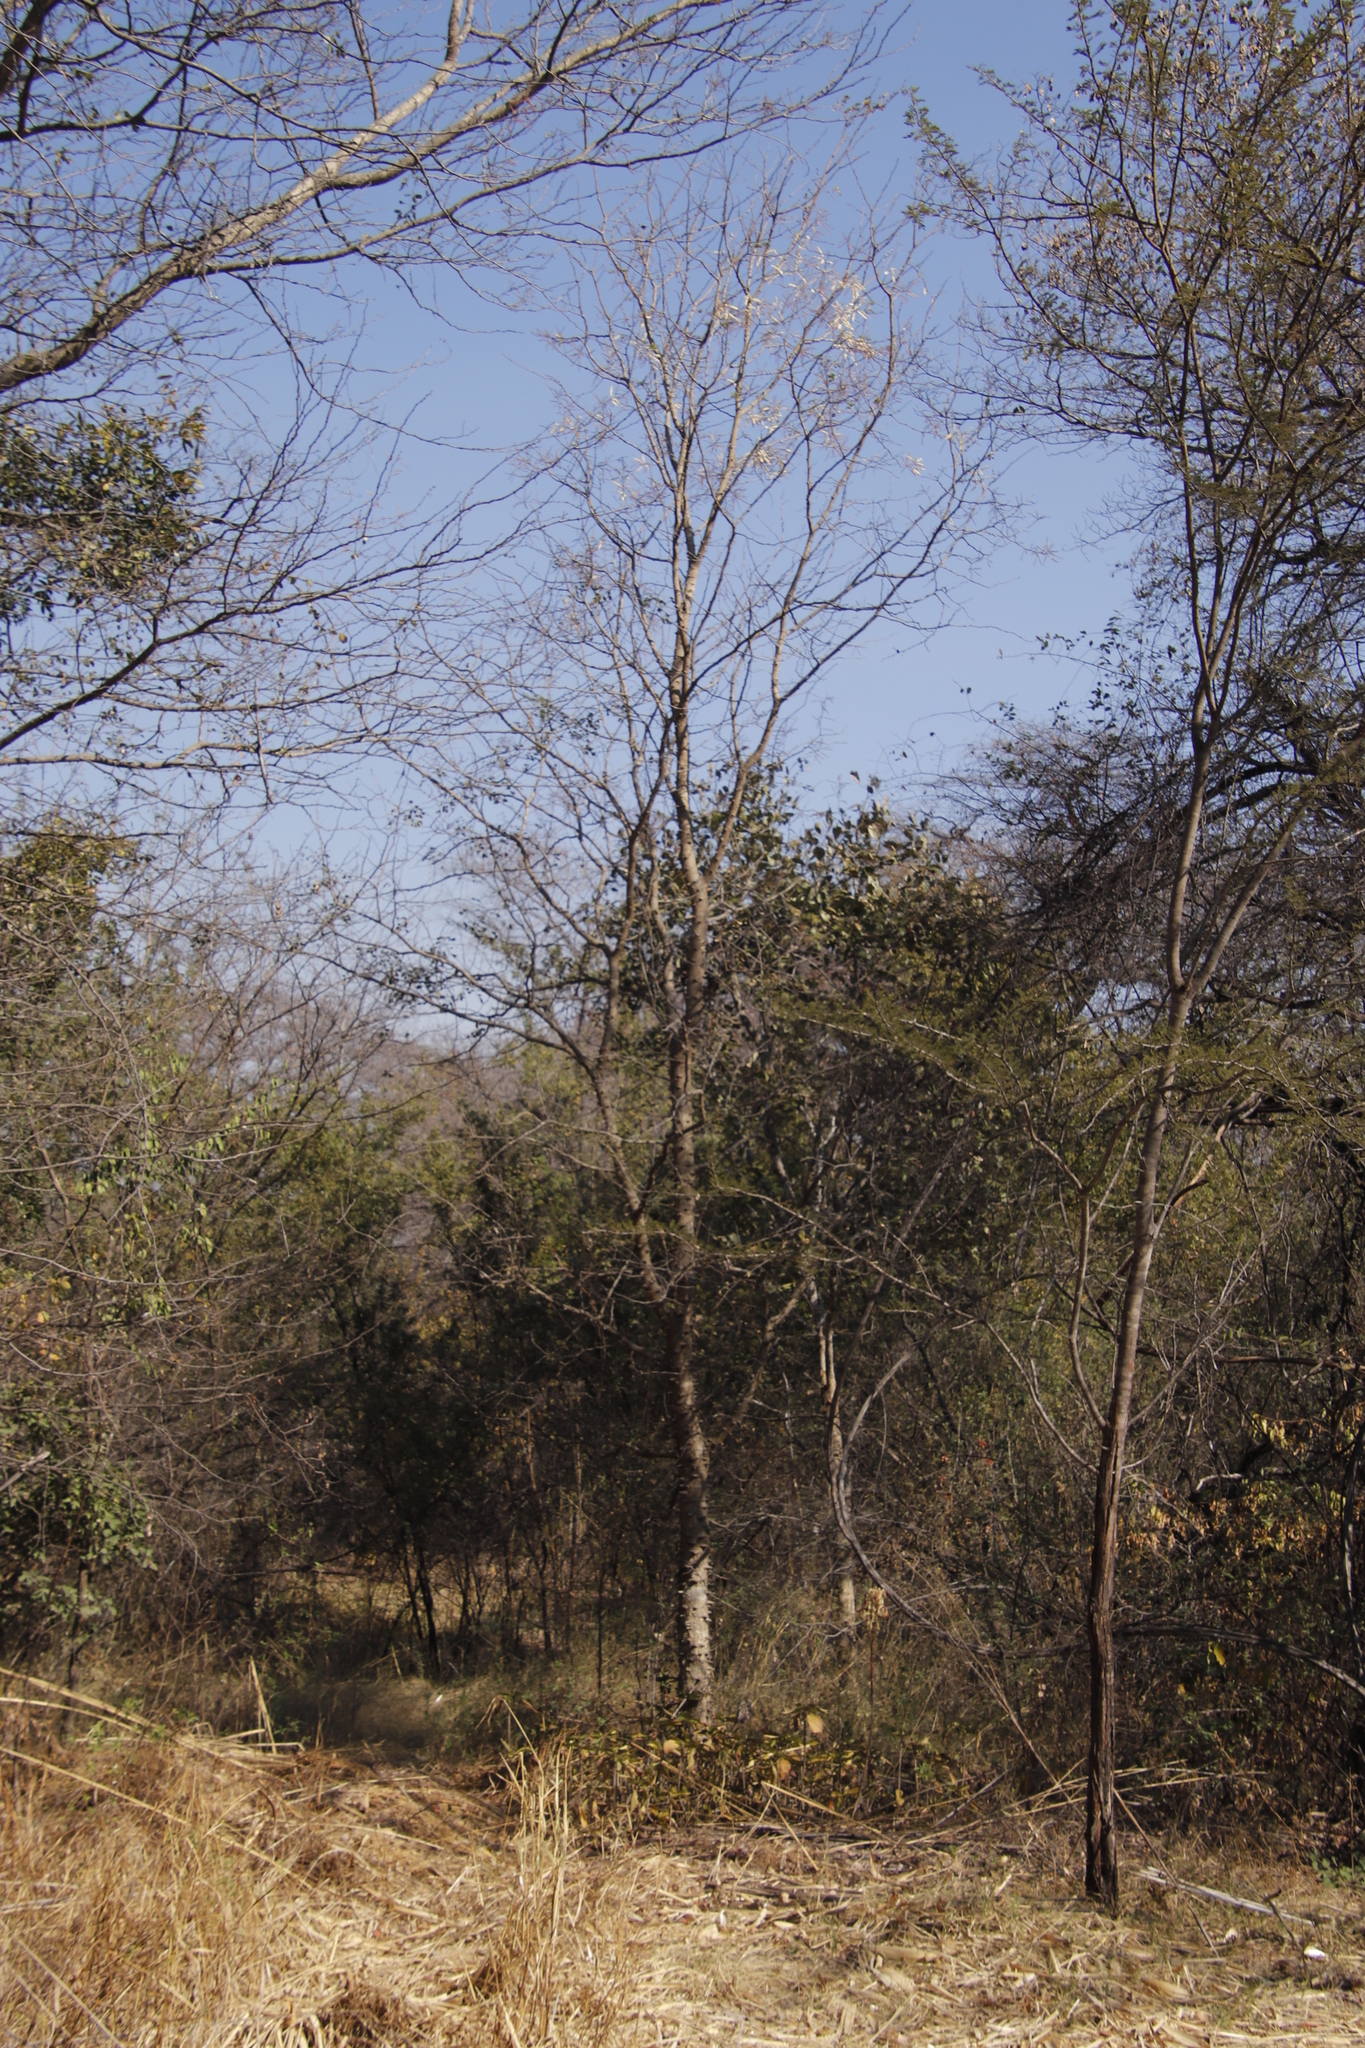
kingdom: Plantae
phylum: Tracheophyta
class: Magnoliopsida
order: Fabales
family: Fabaceae
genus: Senegalia
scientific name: Senegalia nigrescens
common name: Knobthorn
